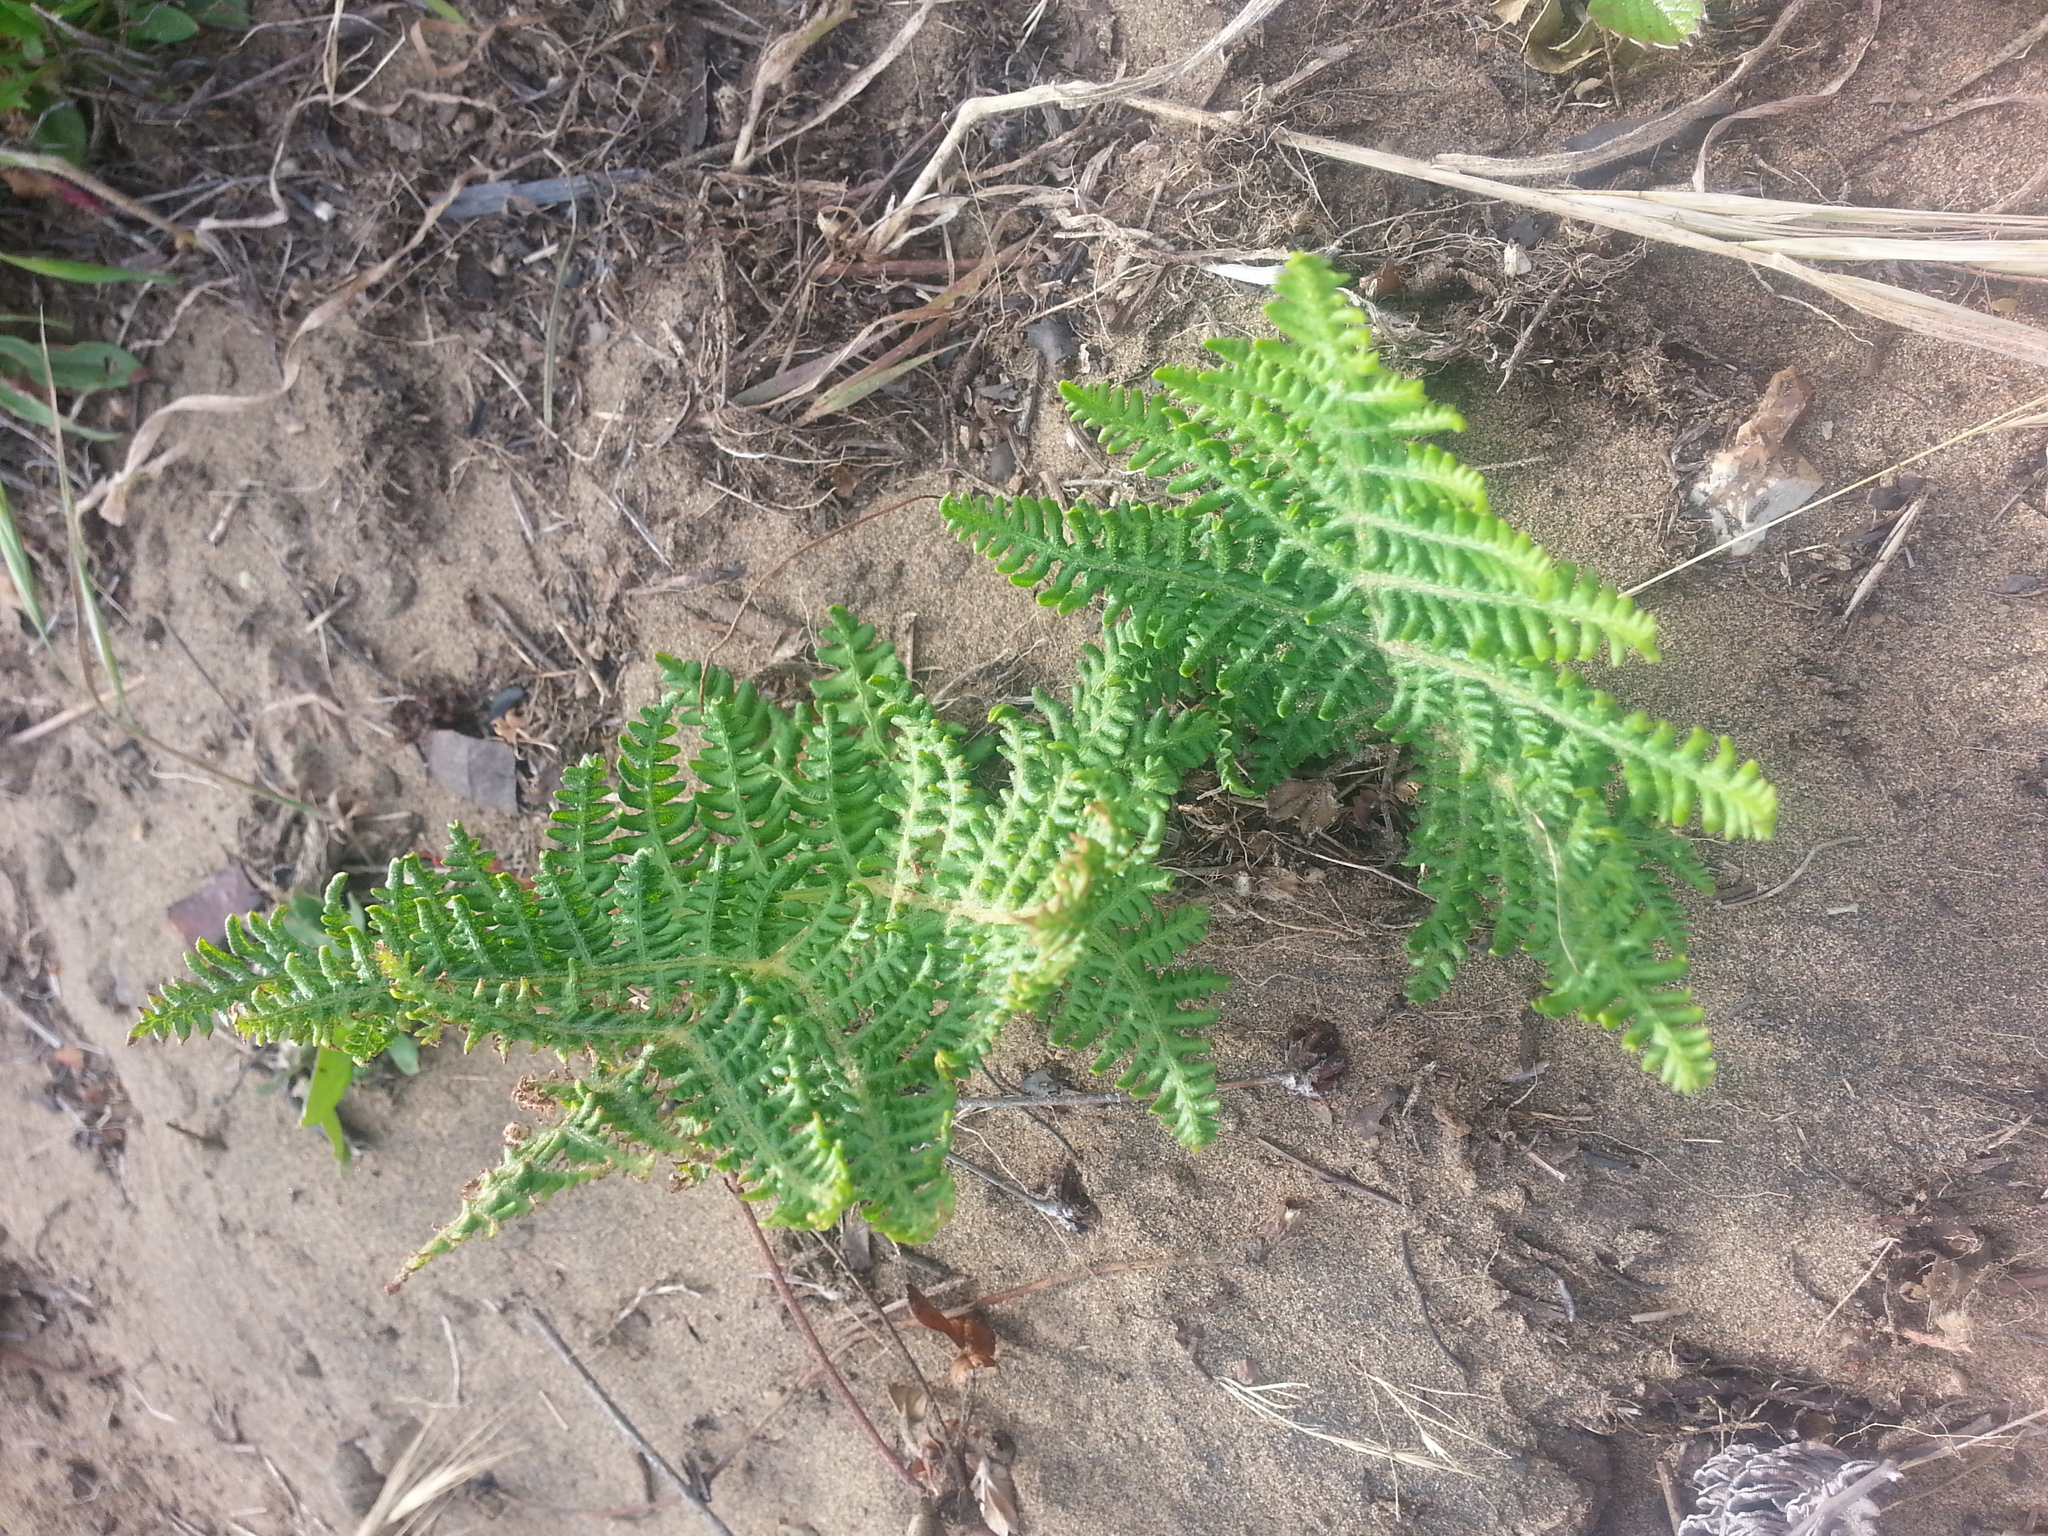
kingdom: Plantae
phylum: Tracheophyta
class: Polypodiopsida
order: Polypodiales
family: Dennstaedtiaceae
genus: Pteridium
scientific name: Pteridium aquilinum
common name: Bracken
